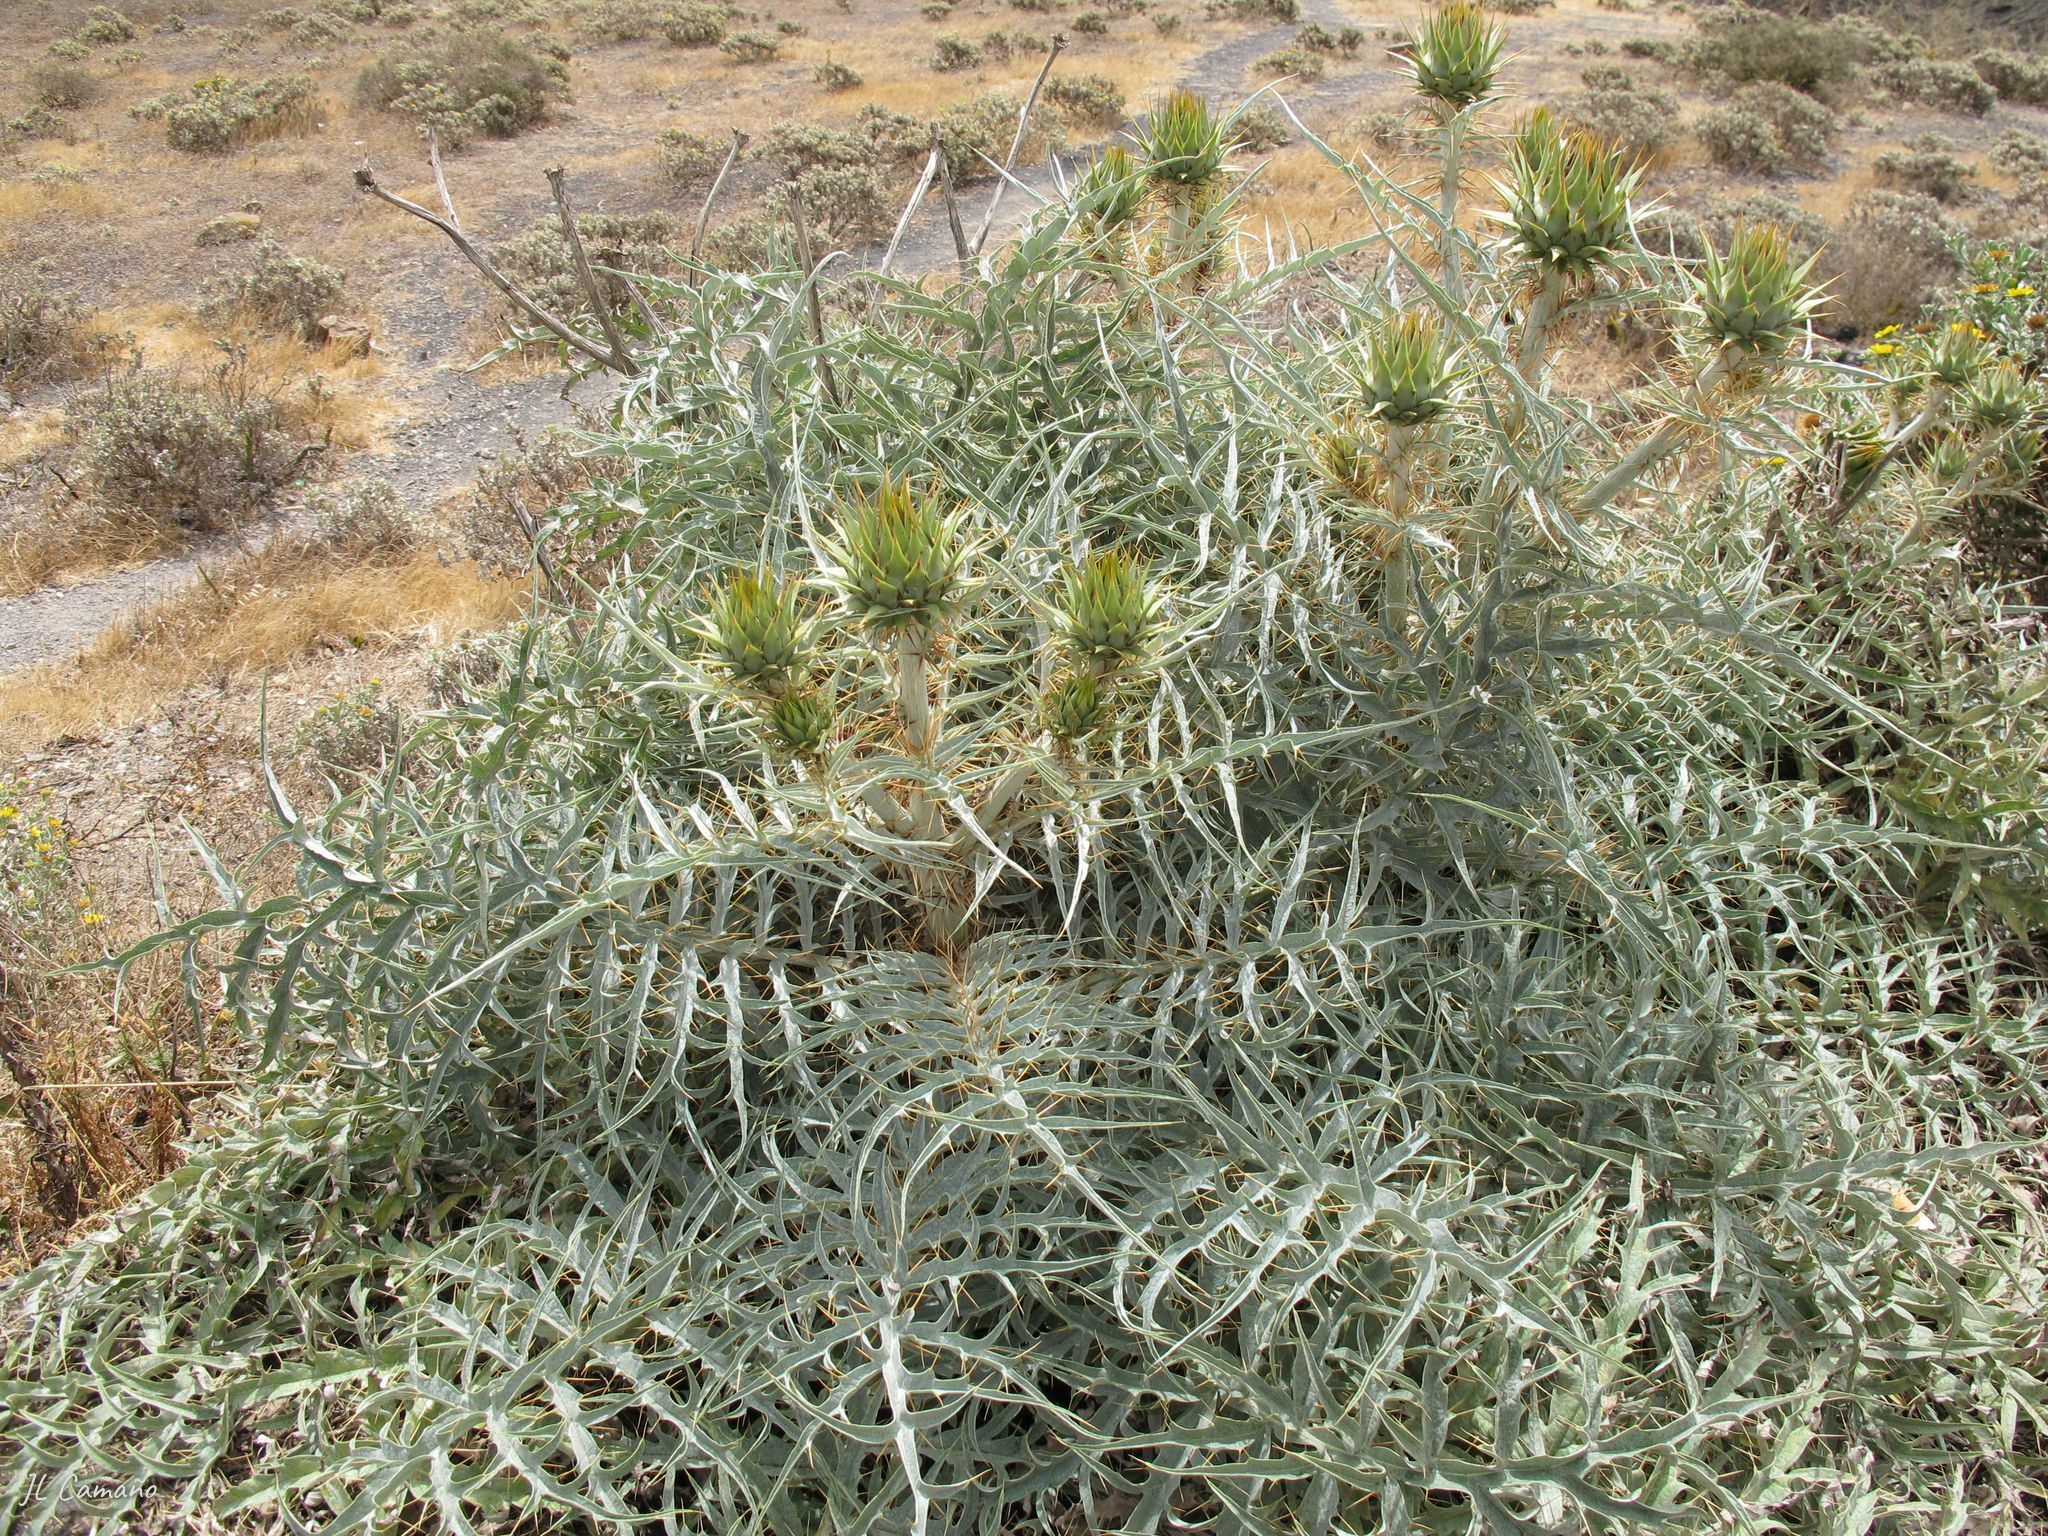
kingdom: Plantae
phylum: Tracheophyta
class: Magnoliopsida
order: Asterales
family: Asteraceae
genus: Cynara
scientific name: Cynara cardunculus
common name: Globe artichoke
